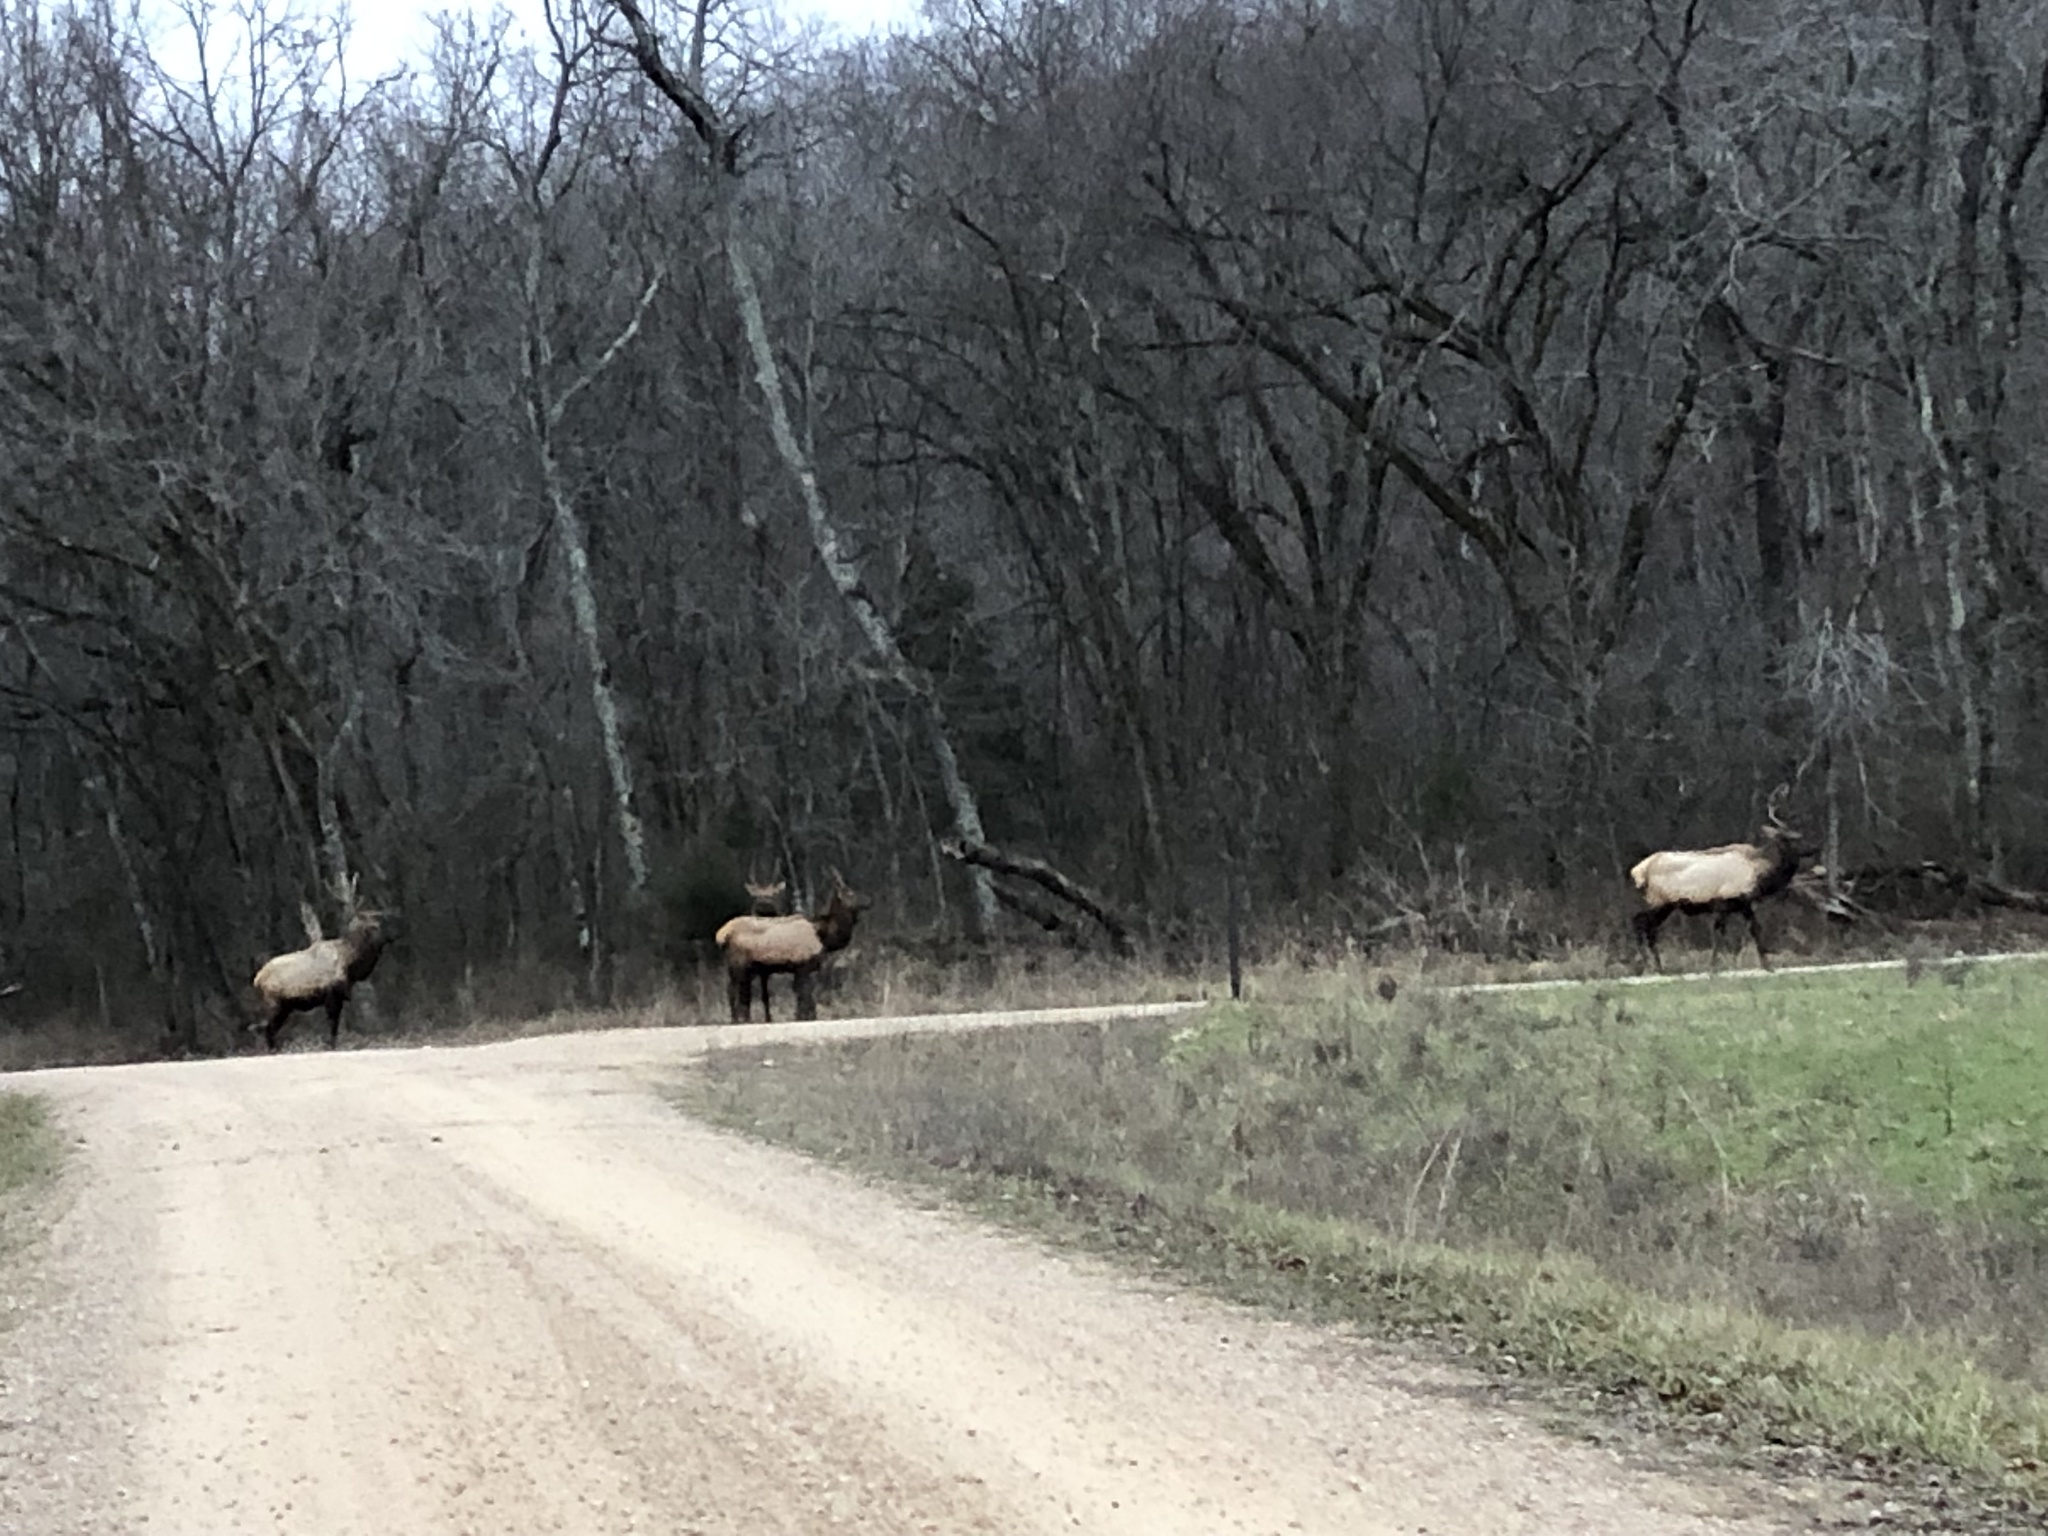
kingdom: Animalia
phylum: Chordata
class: Mammalia
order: Artiodactyla
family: Cervidae
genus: Cervus
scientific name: Cervus elaphus
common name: Red deer
